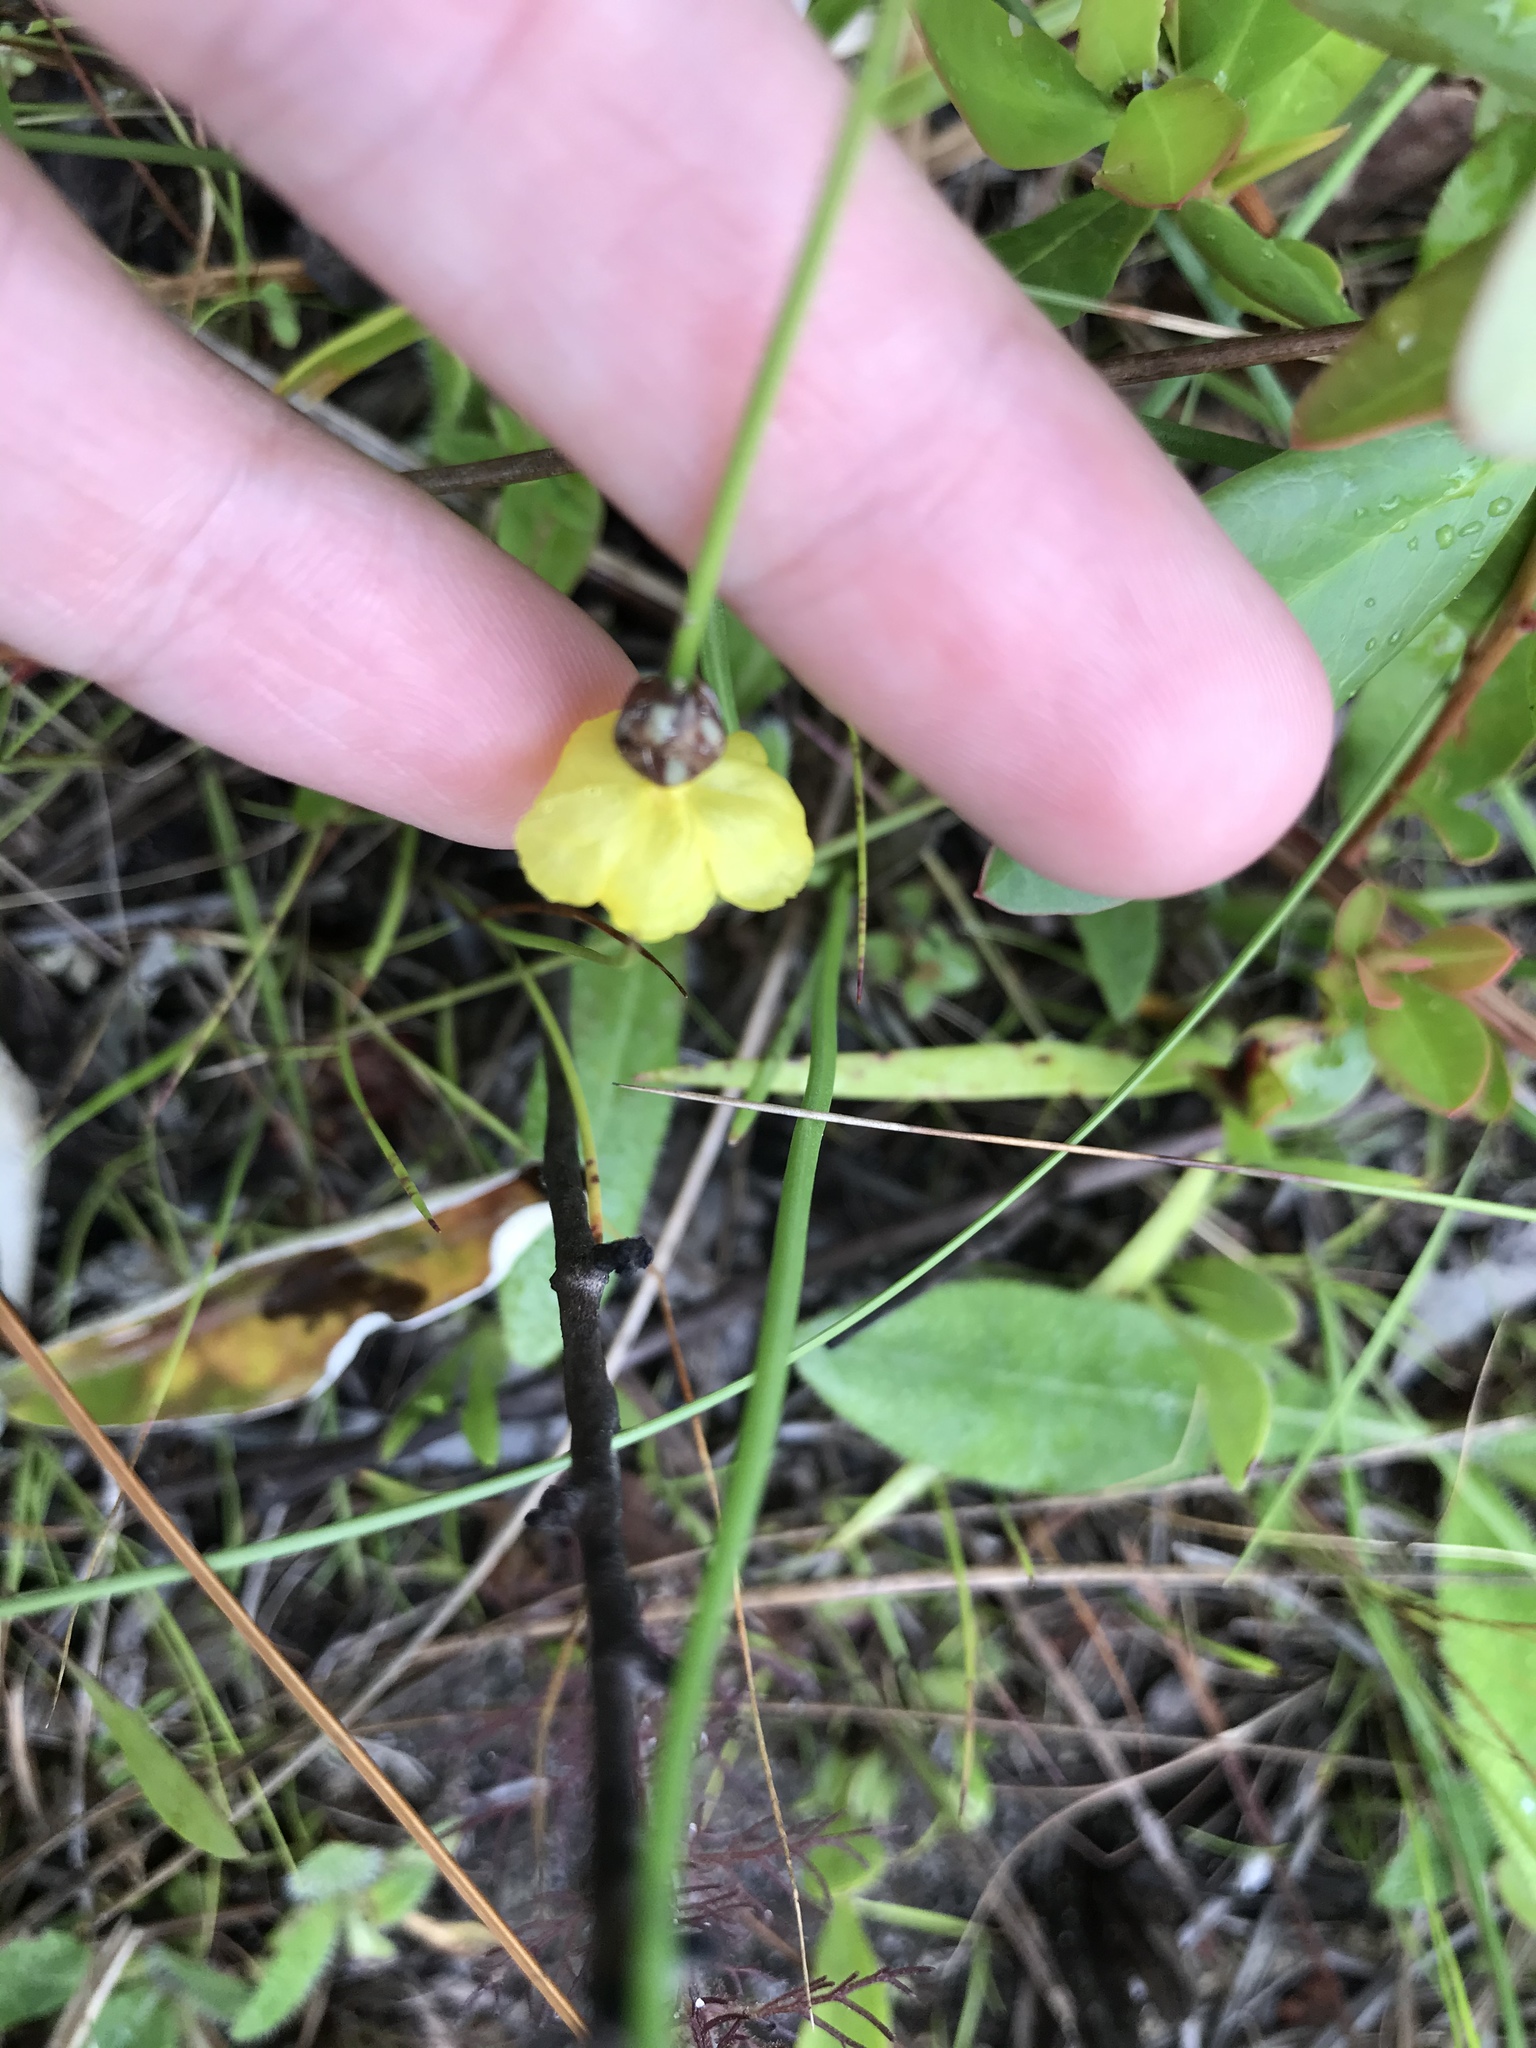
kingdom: Plantae
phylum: Tracheophyta
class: Liliopsida
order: Poales
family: Xyridaceae
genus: Xyris
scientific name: Xyris baldwiniana
